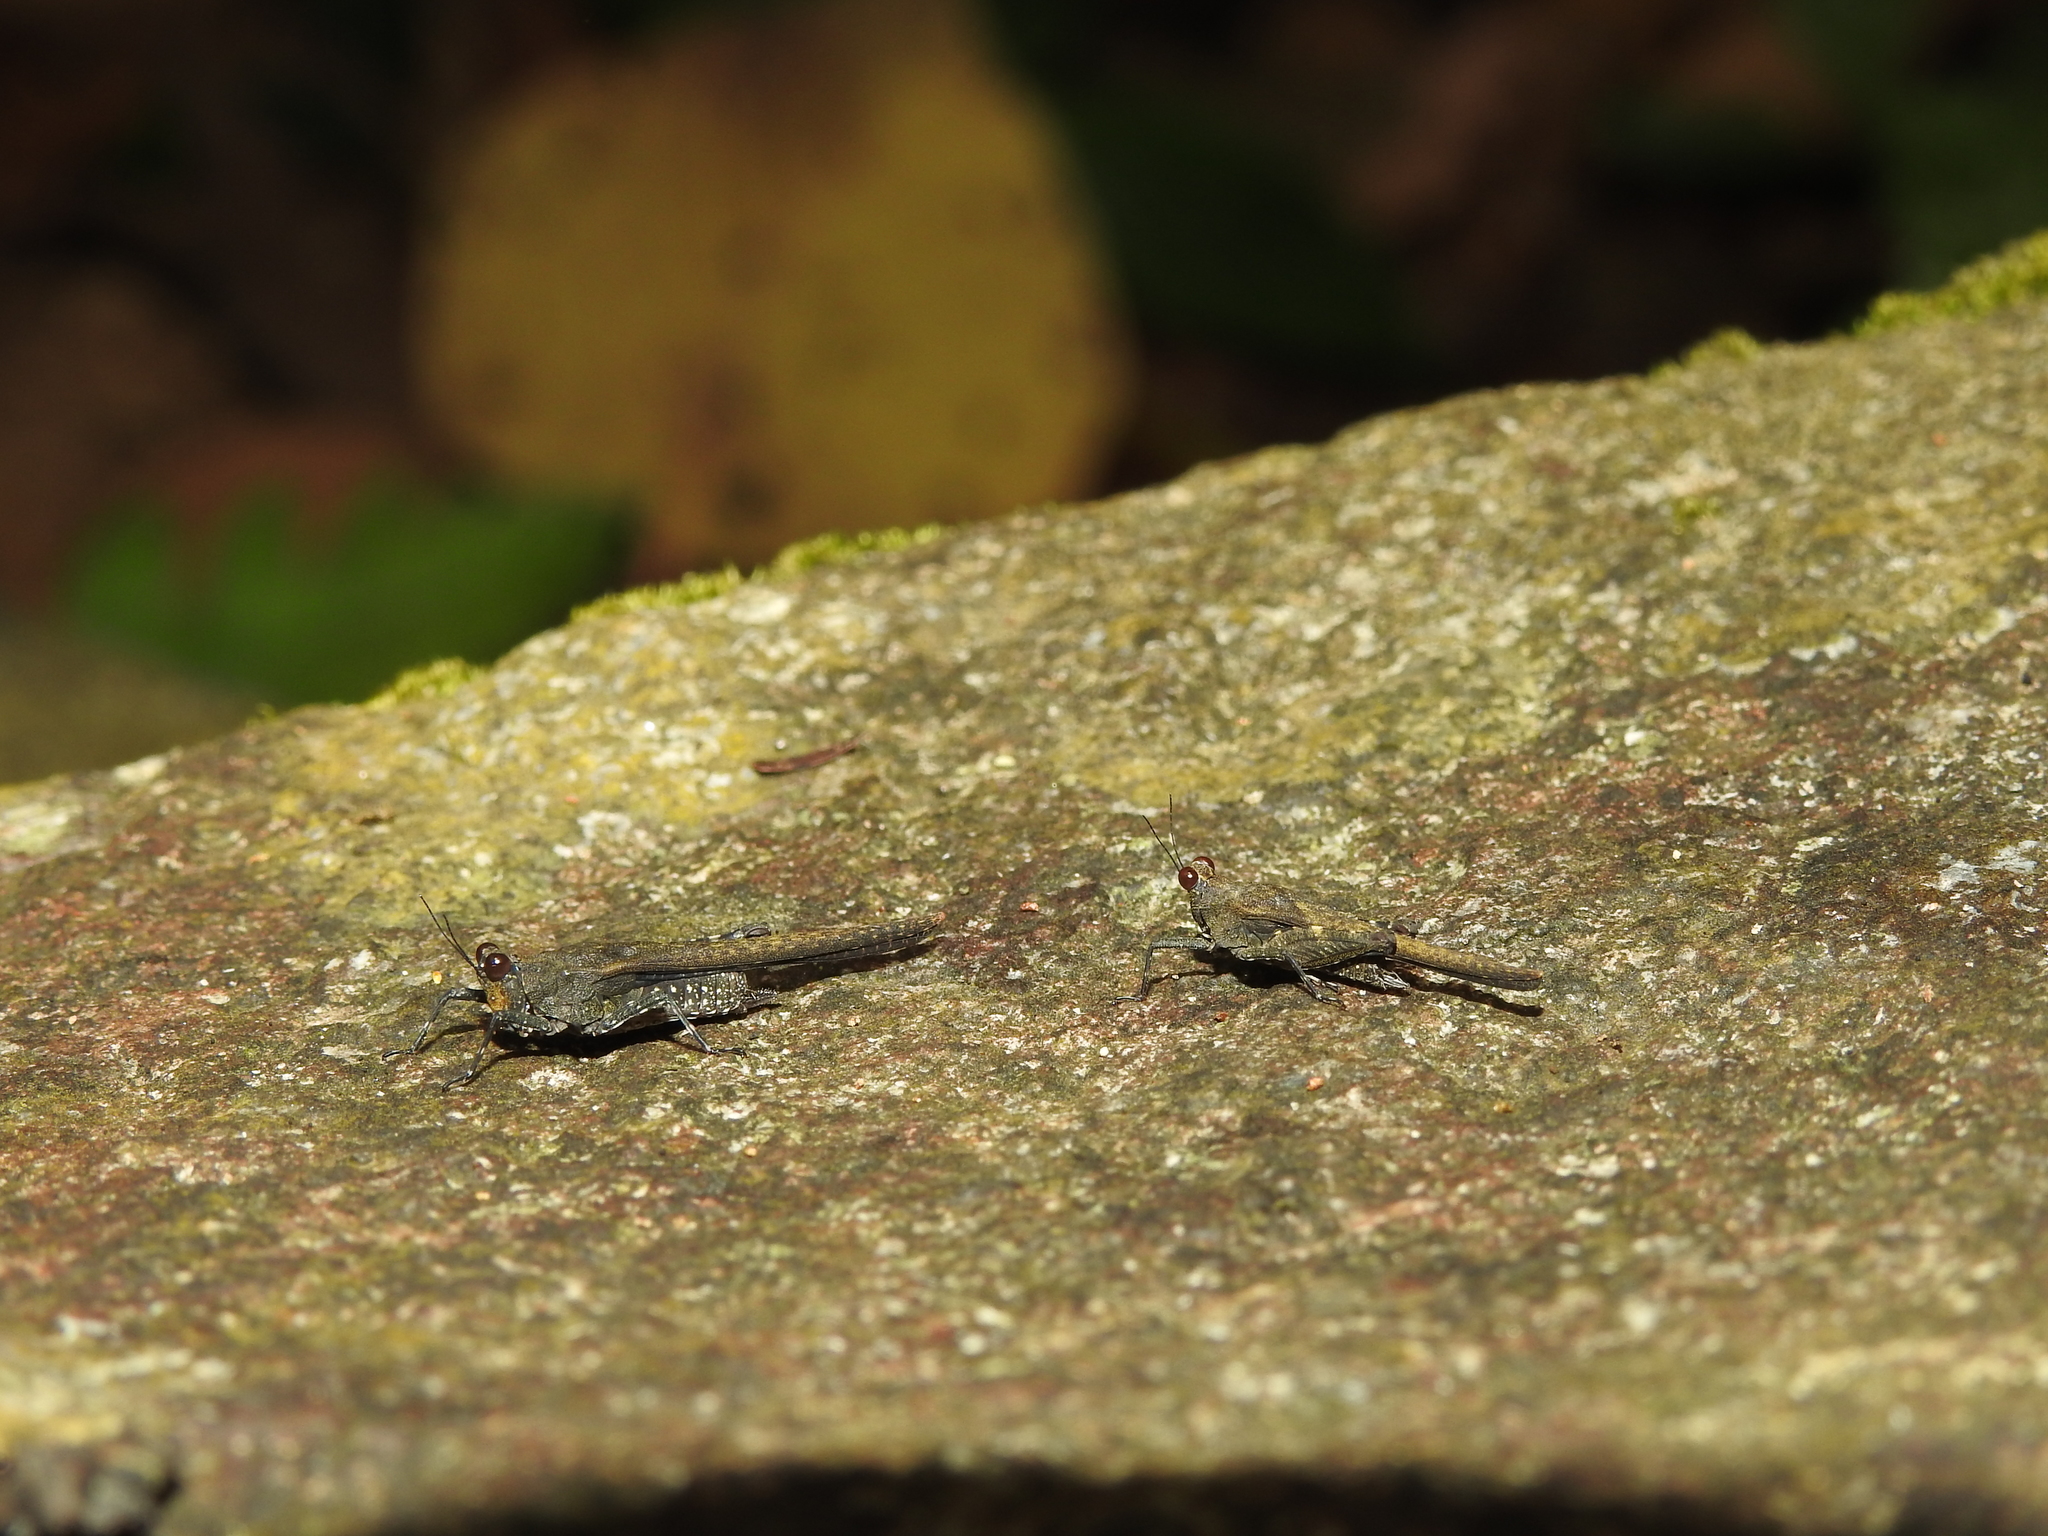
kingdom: Animalia
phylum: Arthropoda
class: Insecta
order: Orthoptera
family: Tetrigidae
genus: Eucriotettix
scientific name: Eucriotettix flavopictus
